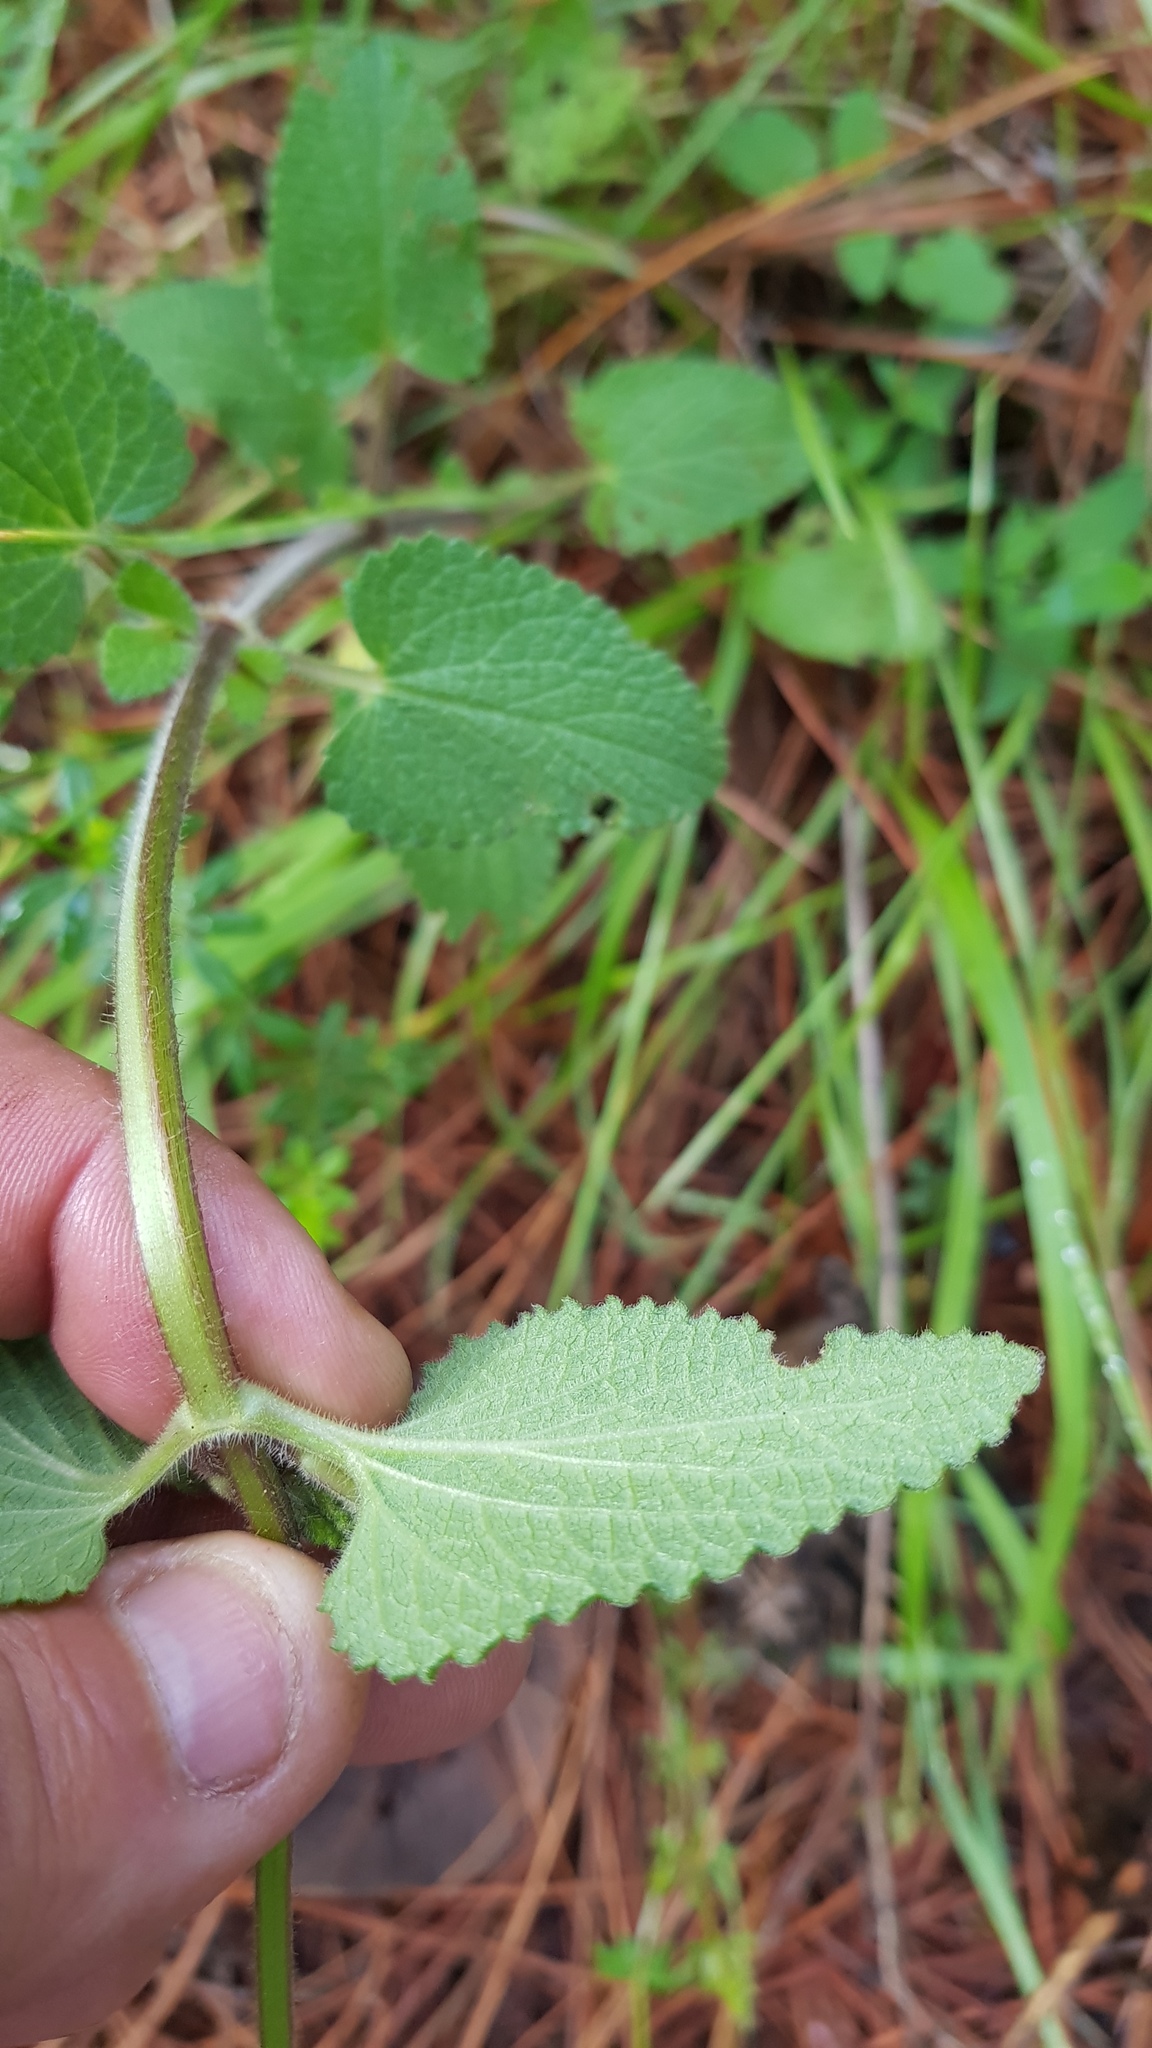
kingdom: Plantae
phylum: Tracheophyta
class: Magnoliopsida
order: Lamiales
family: Lamiaceae
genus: Stachys
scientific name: Stachys coccinea
